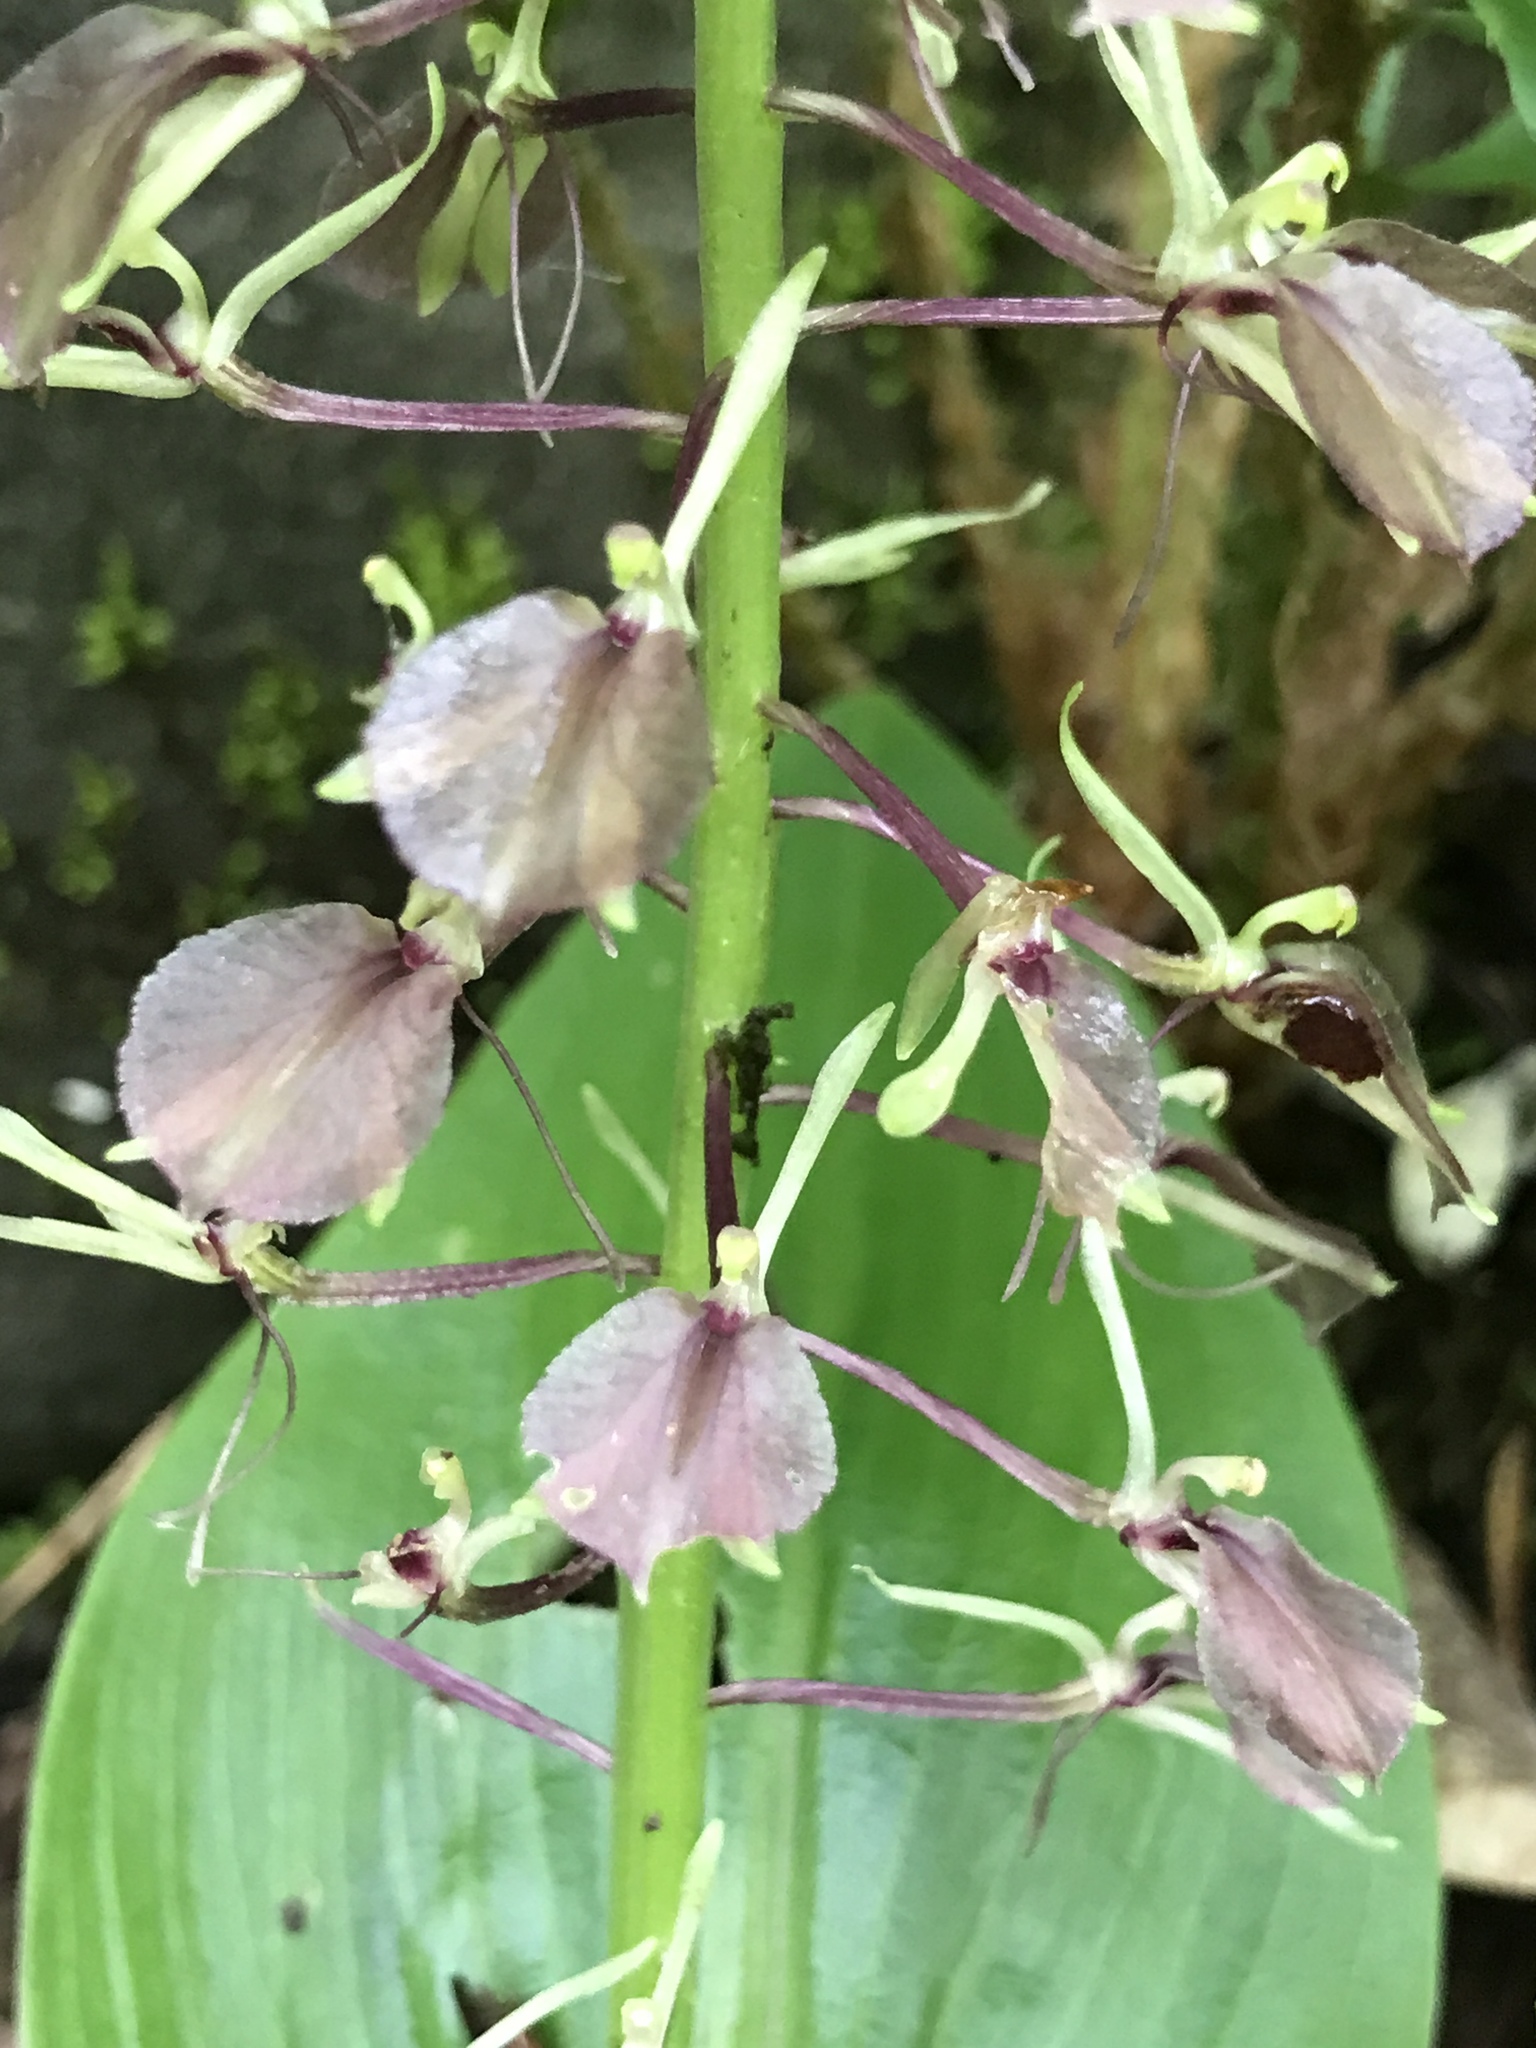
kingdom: Plantae
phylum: Tracheophyta
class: Liliopsida
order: Asparagales
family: Orchidaceae
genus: Liparis
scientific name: Liparis liliifolia
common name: Brown wide-lip orchid
